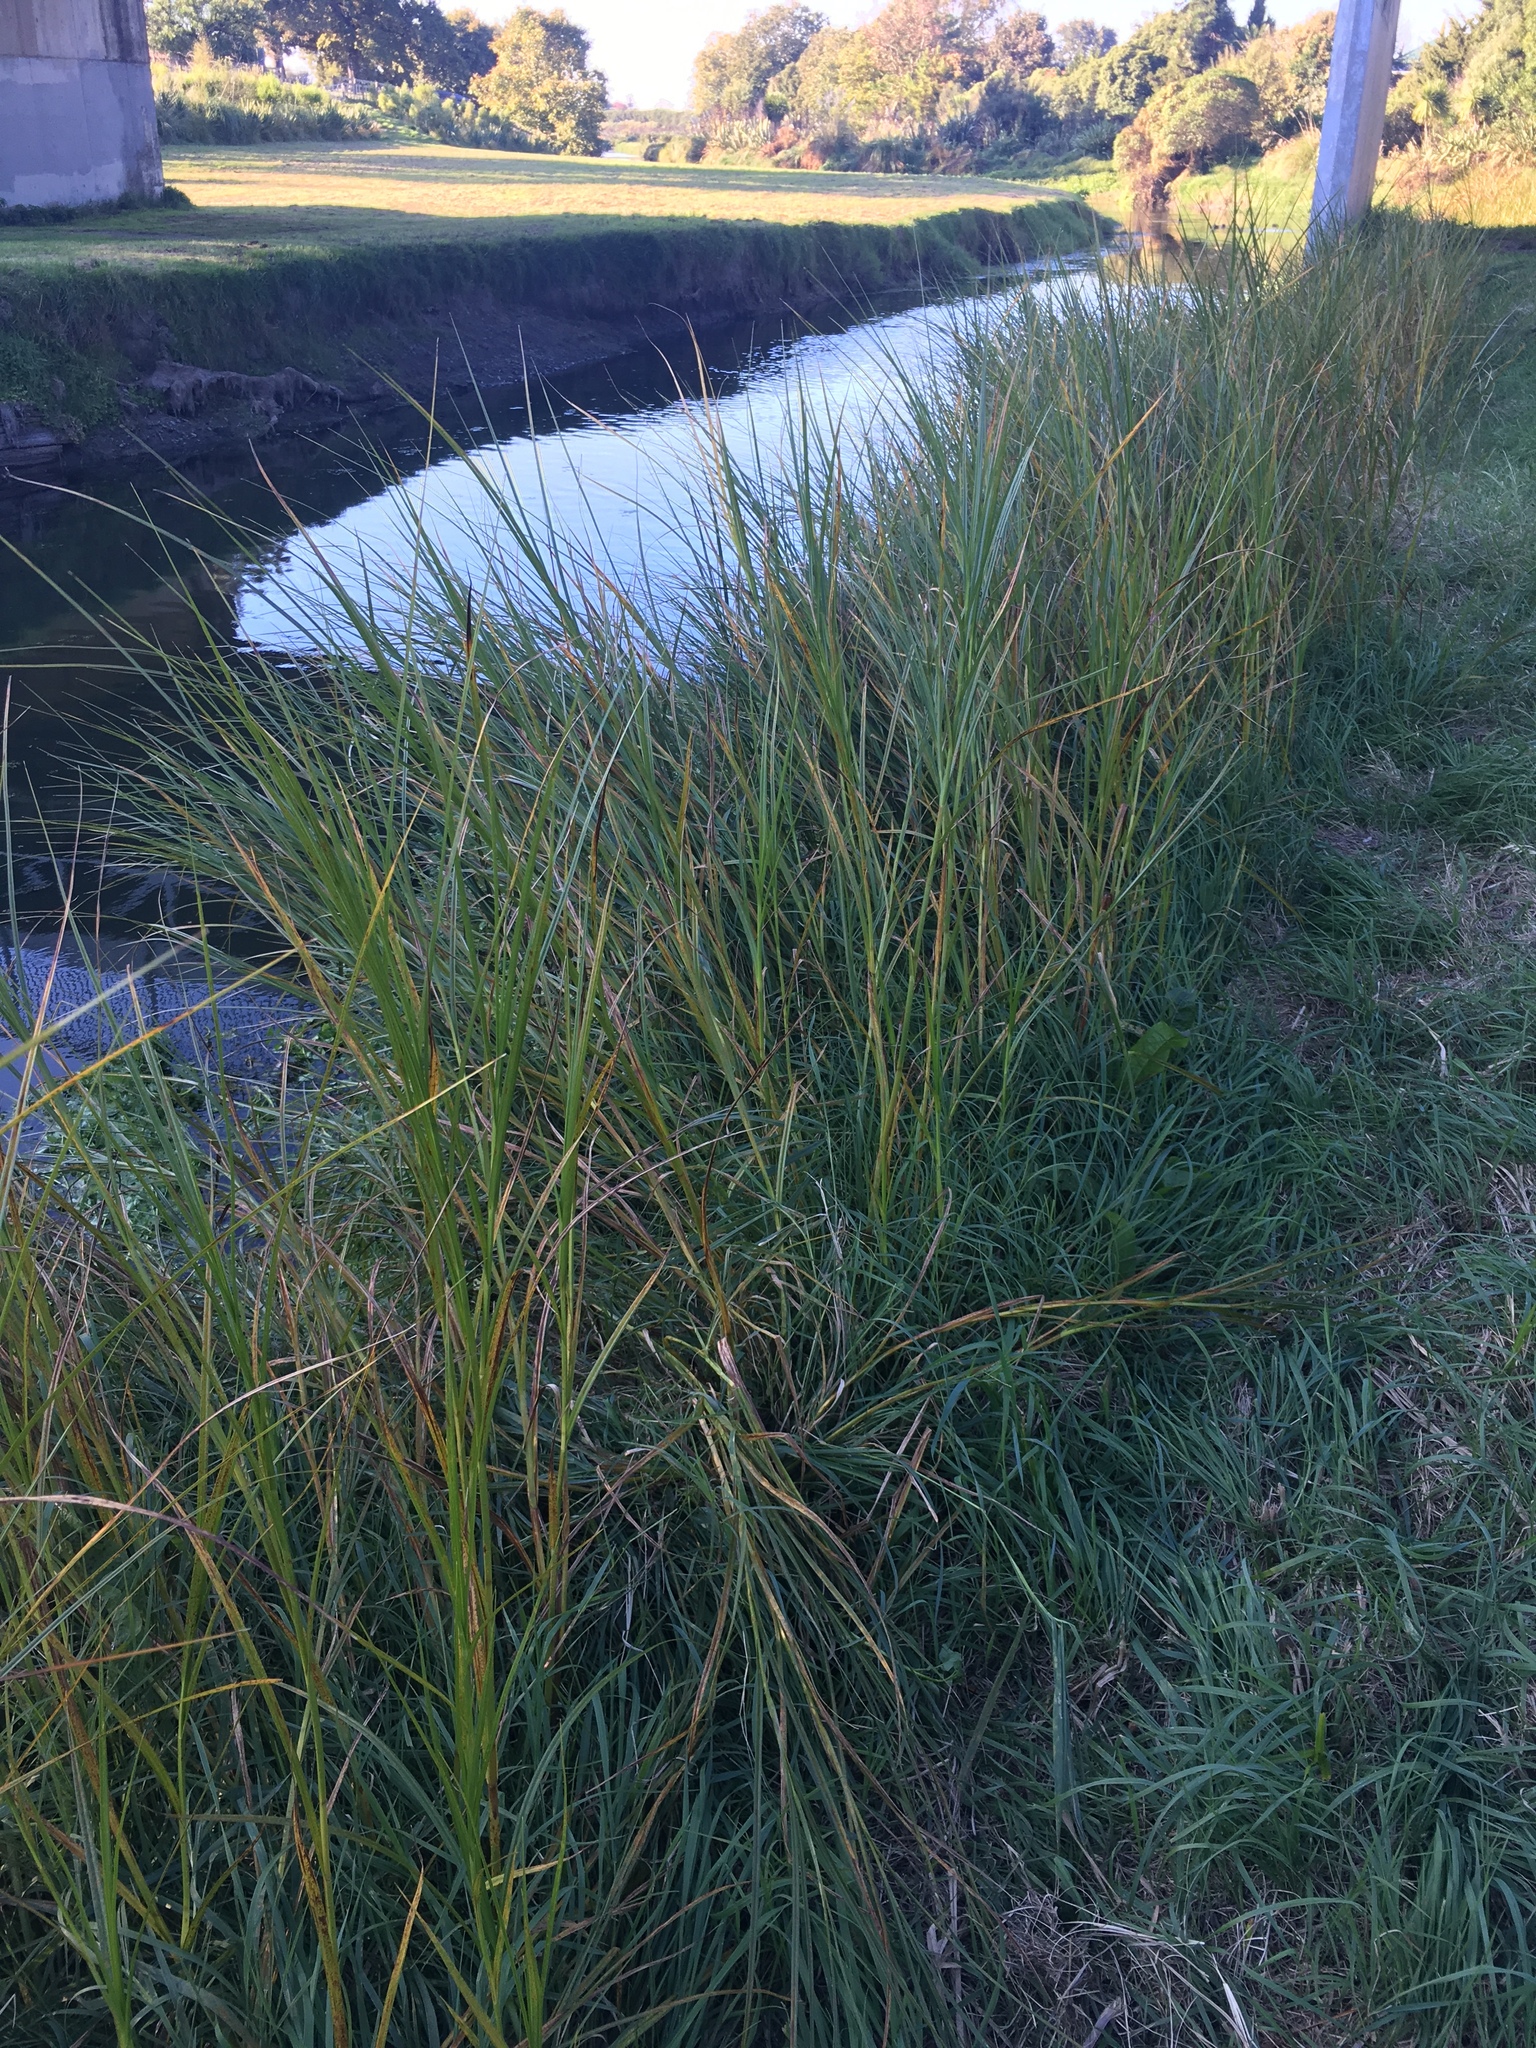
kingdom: Plantae
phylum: Tracheophyta
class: Liliopsida
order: Poales
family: Cyperaceae
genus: Bolboschoenus
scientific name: Bolboschoenus fluviatilis
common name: River bulrush
